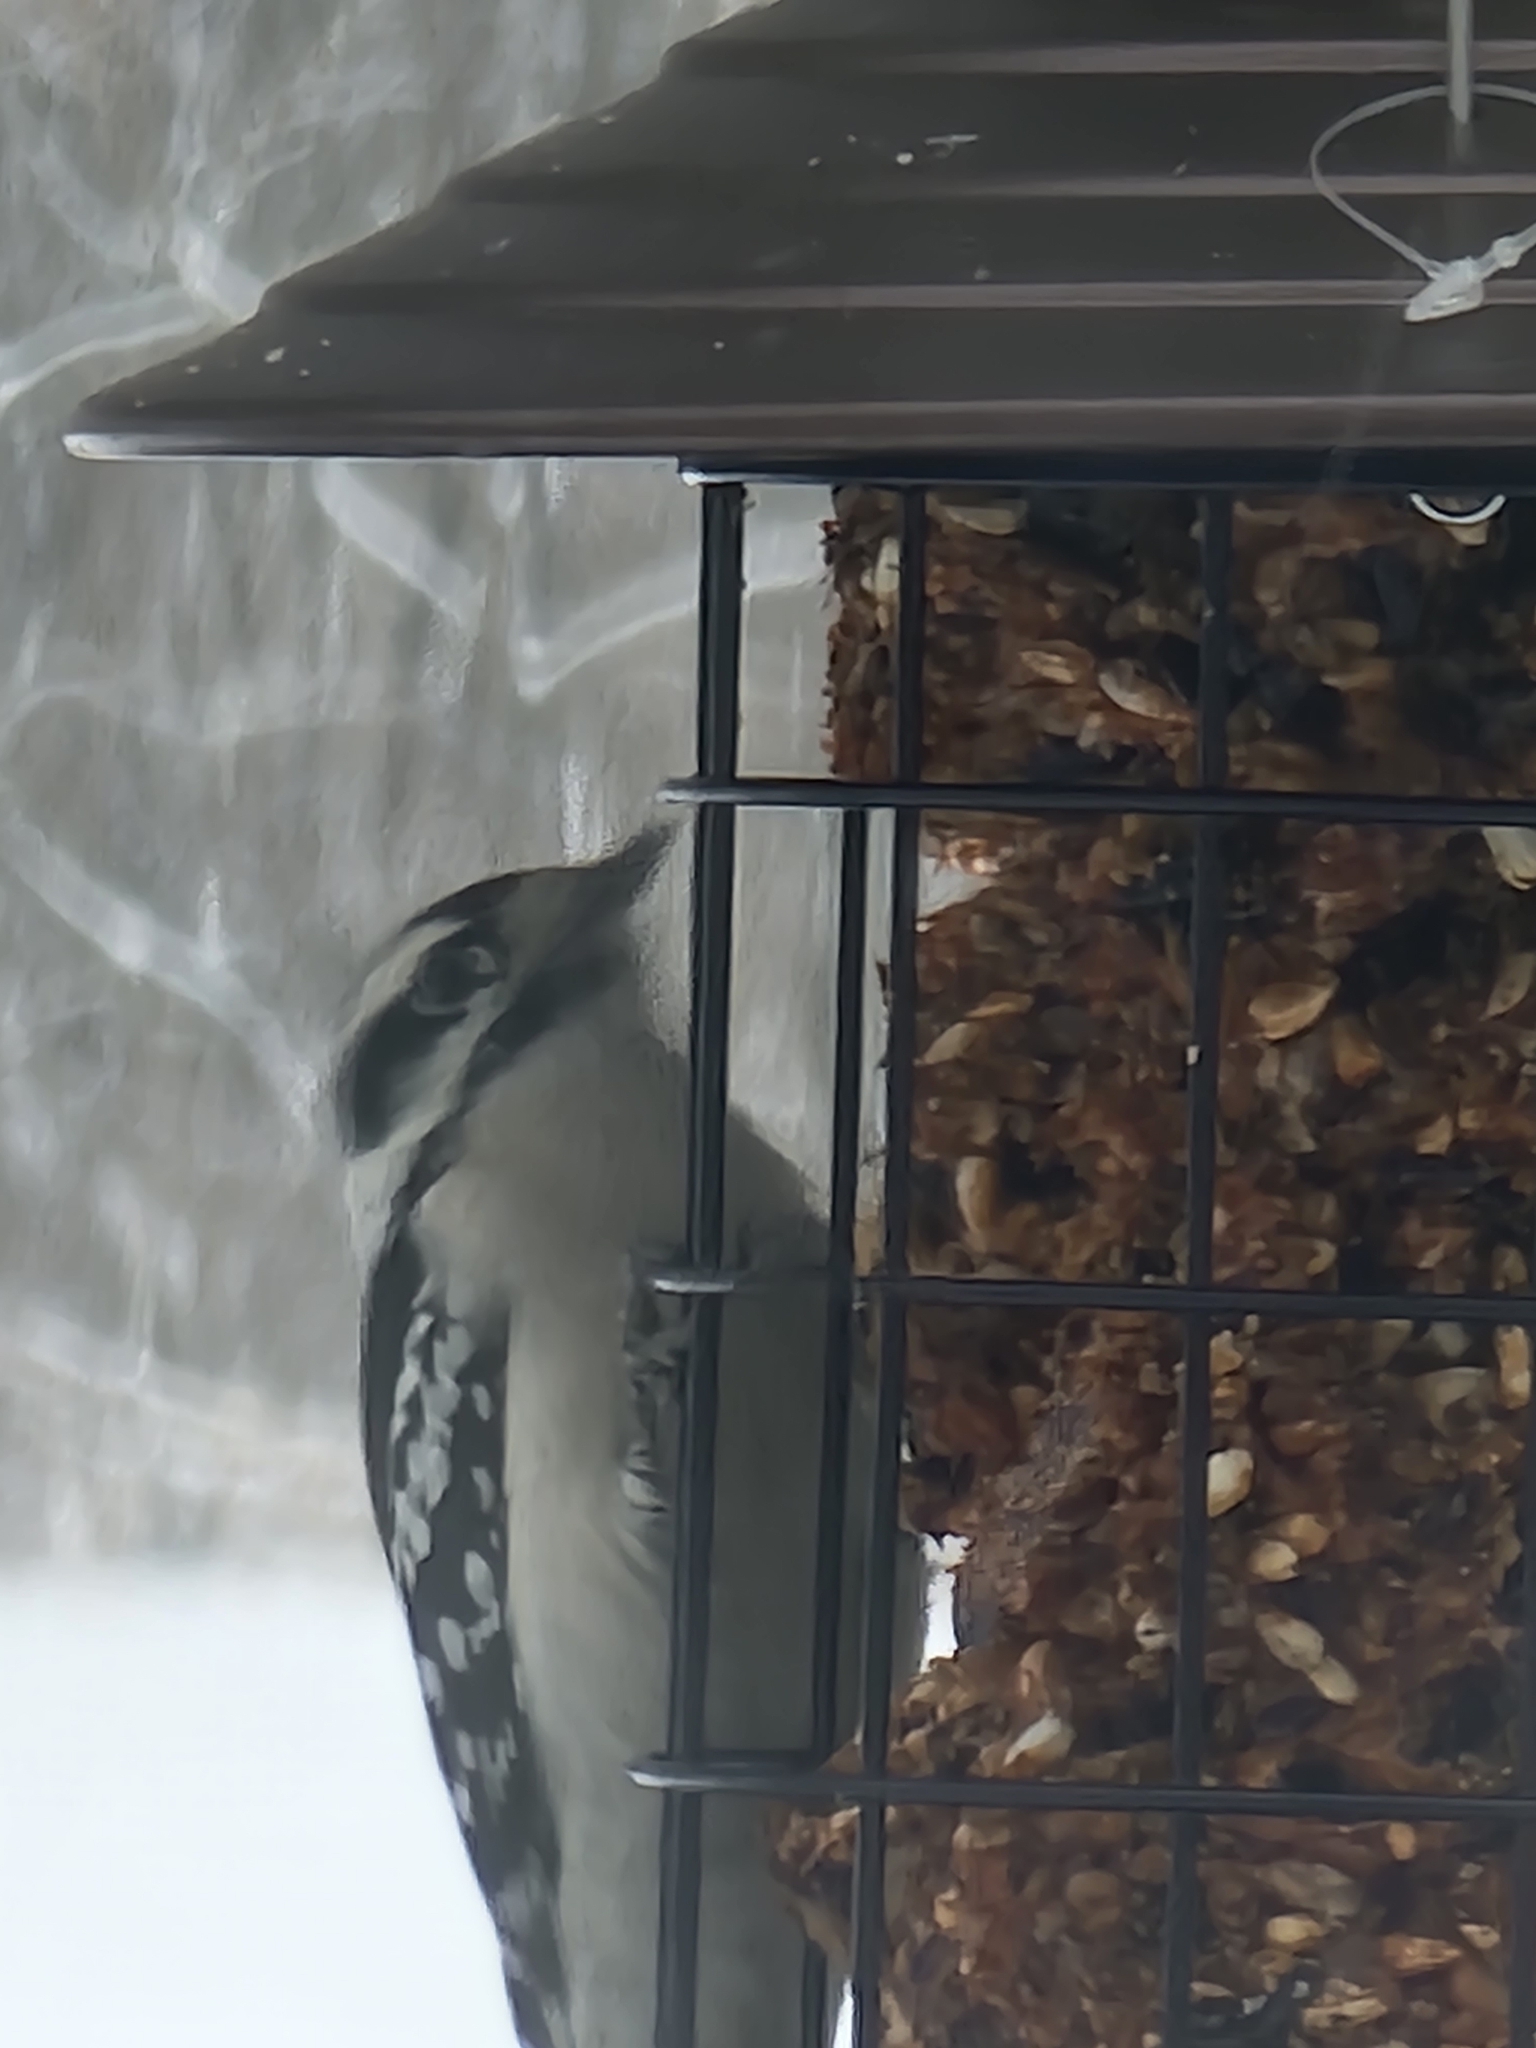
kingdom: Animalia
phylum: Chordata
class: Aves
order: Piciformes
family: Picidae
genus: Dryobates
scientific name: Dryobates pubescens
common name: Downy woodpecker
